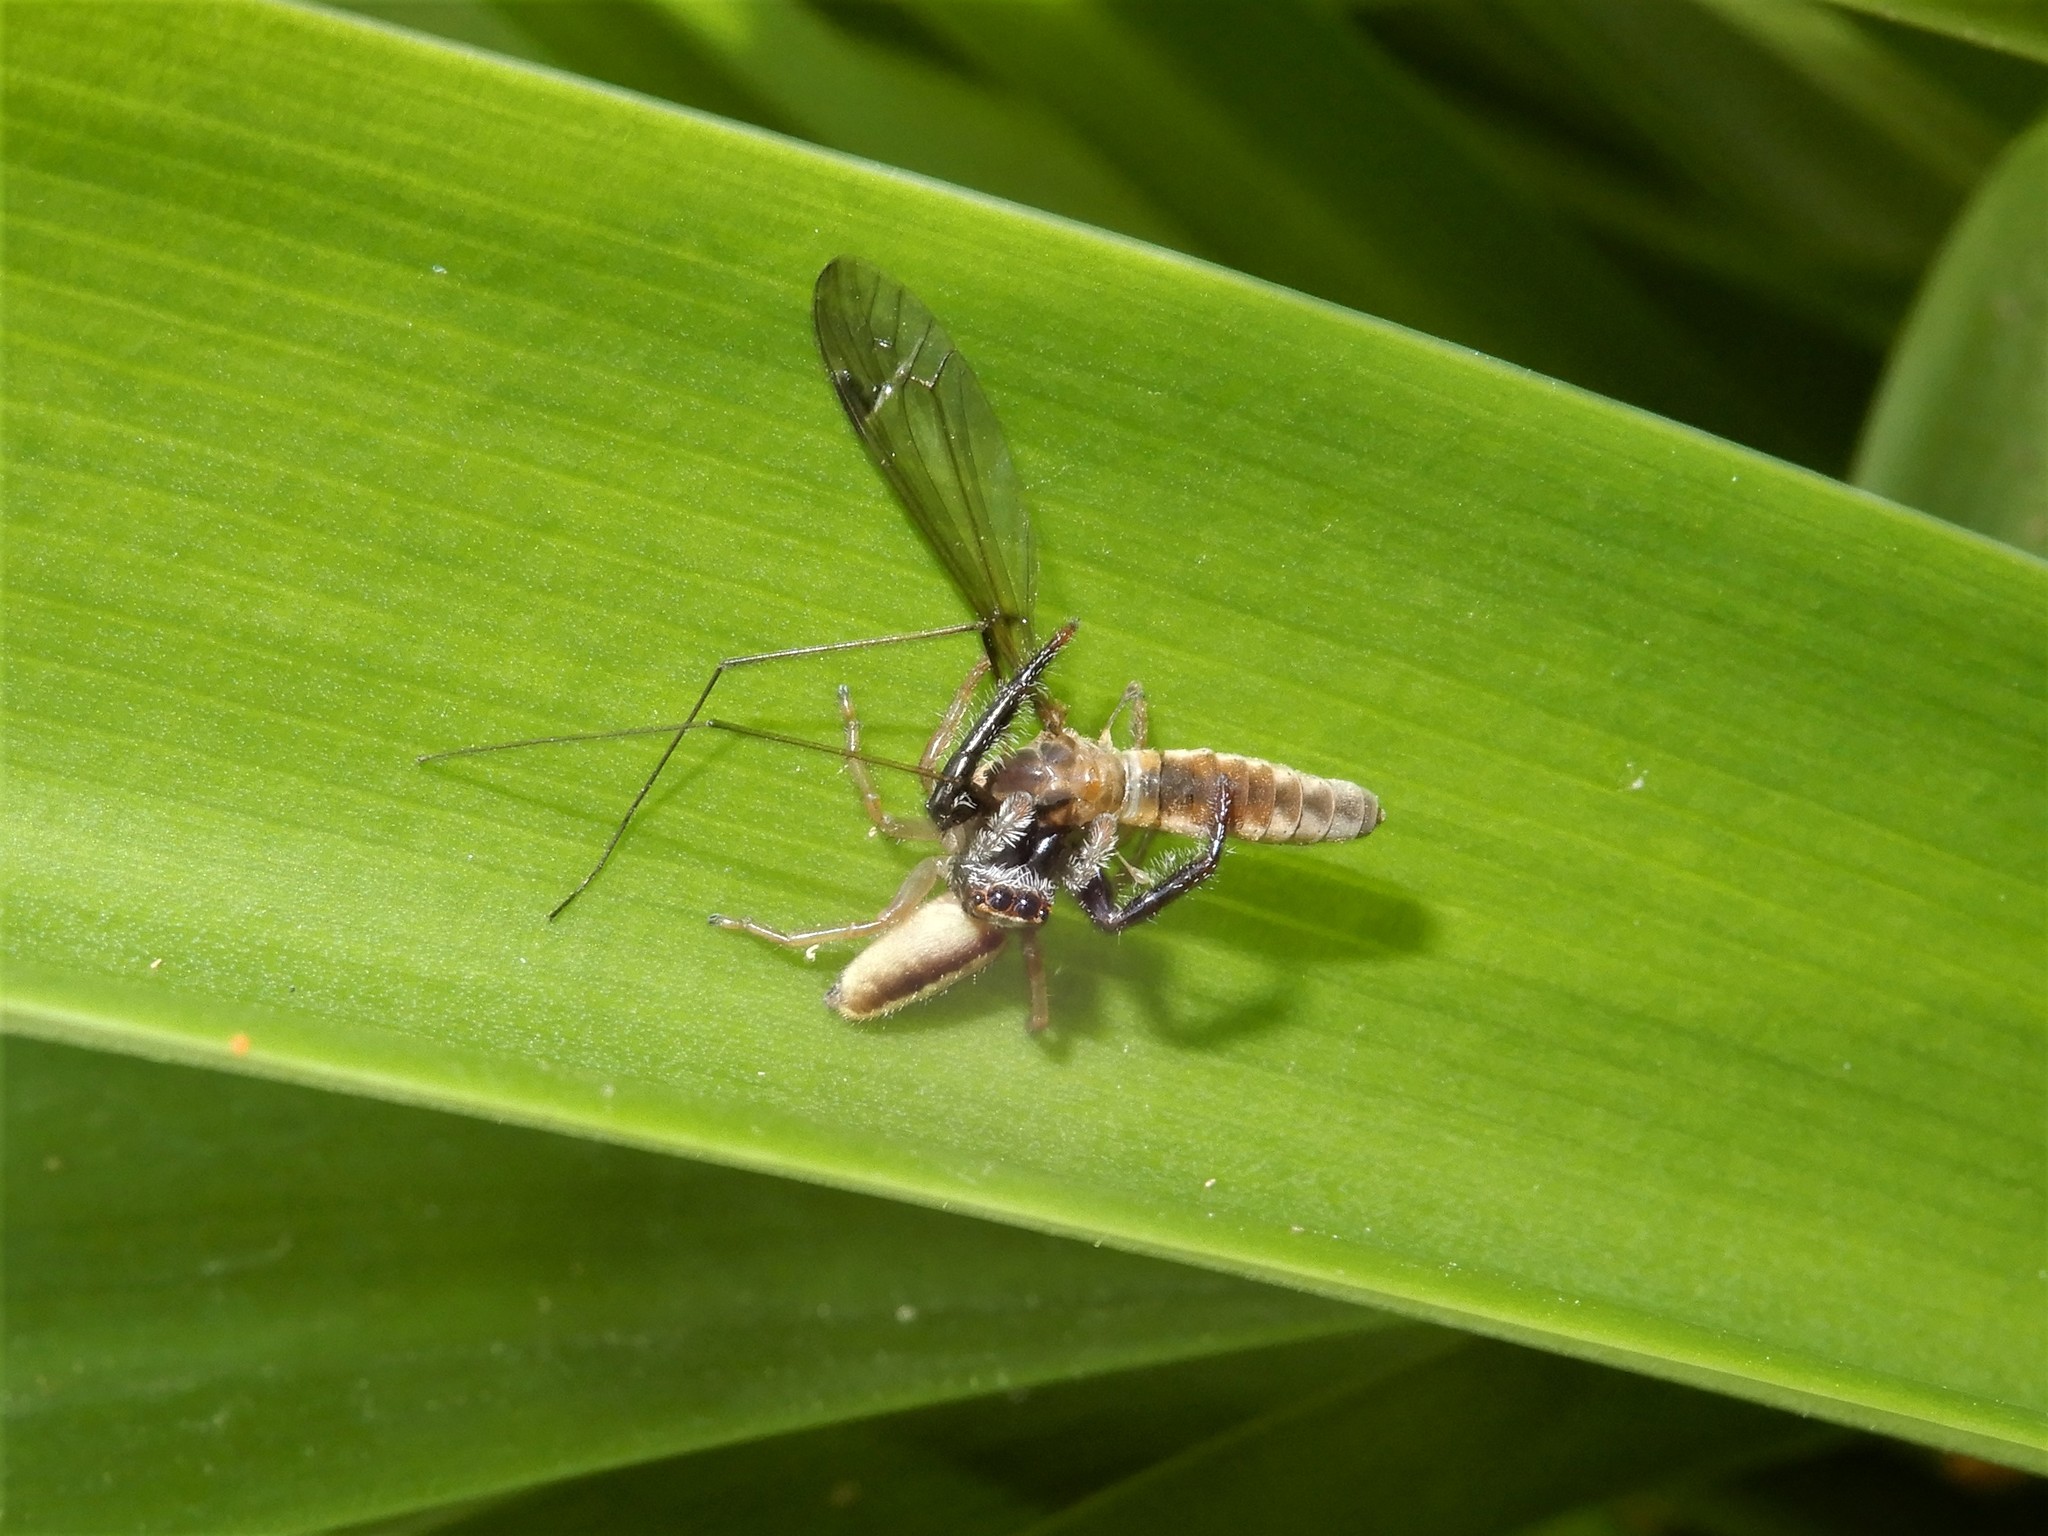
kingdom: Animalia
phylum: Arthropoda
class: Arachnida
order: Araneae
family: Salticidae
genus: Trite
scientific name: Trite planiceps
